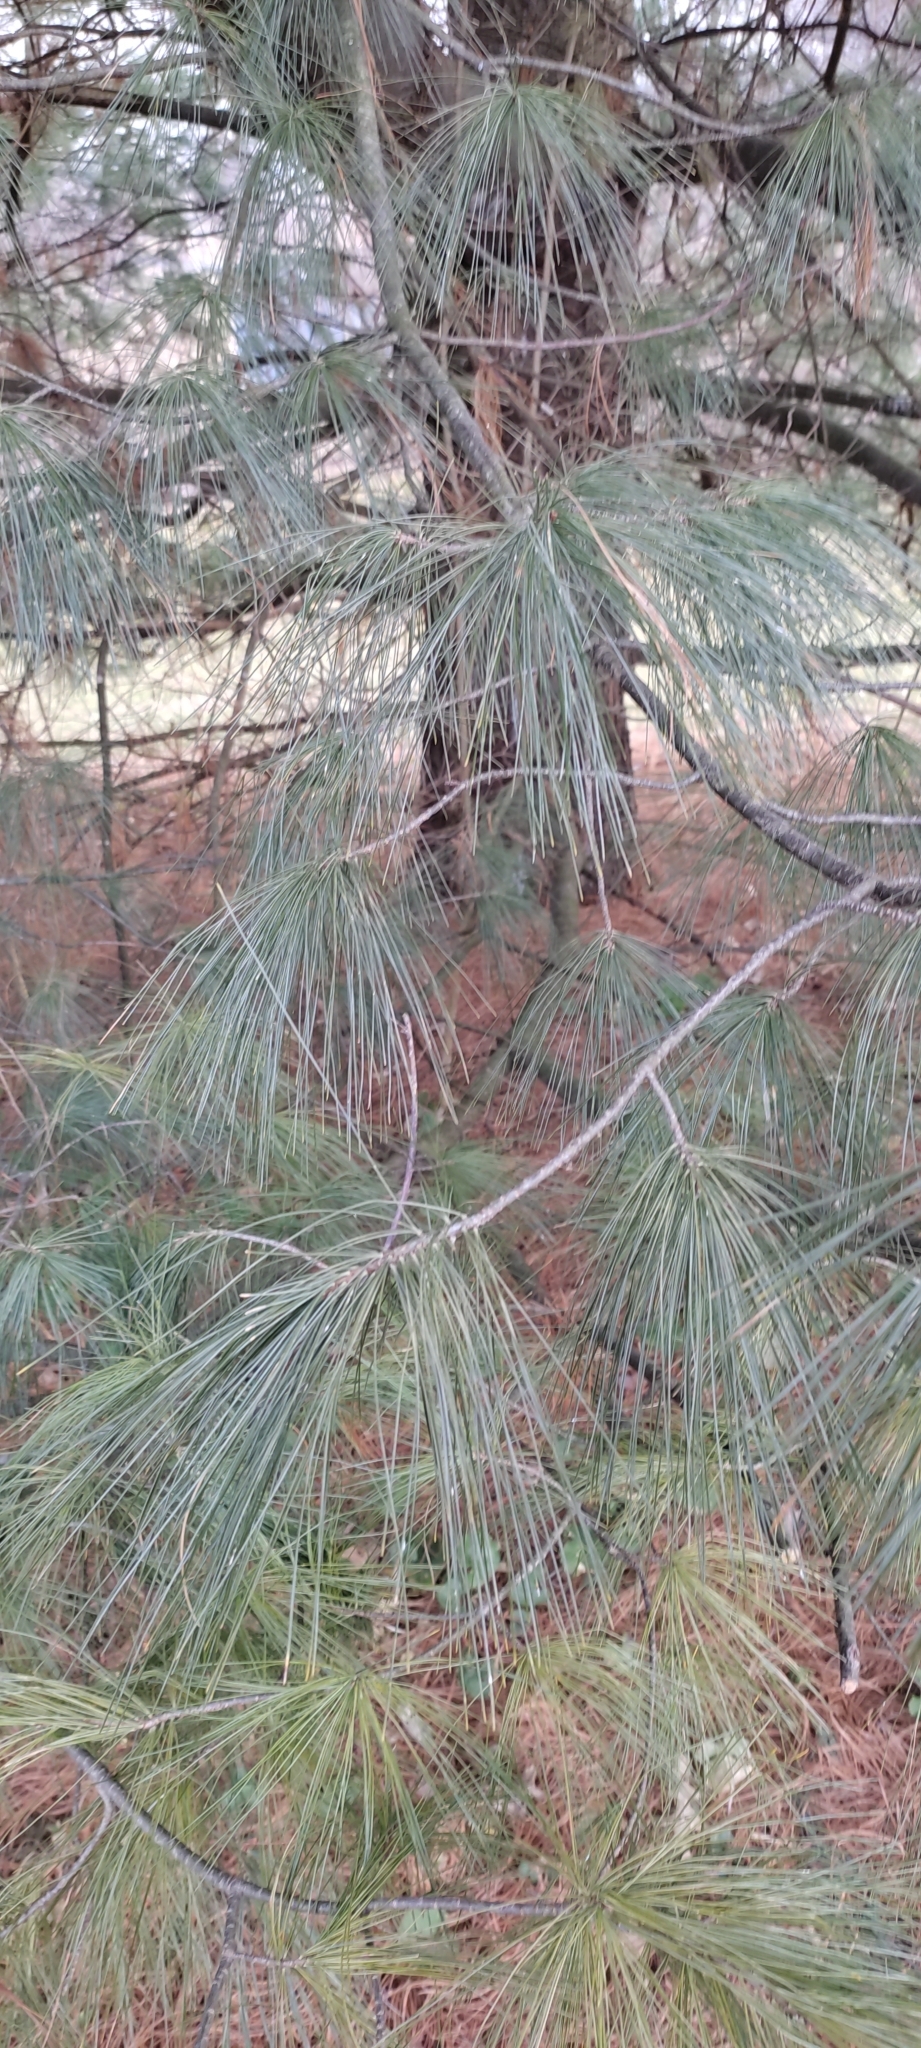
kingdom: Plantae
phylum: Tracheophyta
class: Pinopsida
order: Pinales
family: Pinaceae
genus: Pinus
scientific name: Pinus strobus
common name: Weymouth pine
